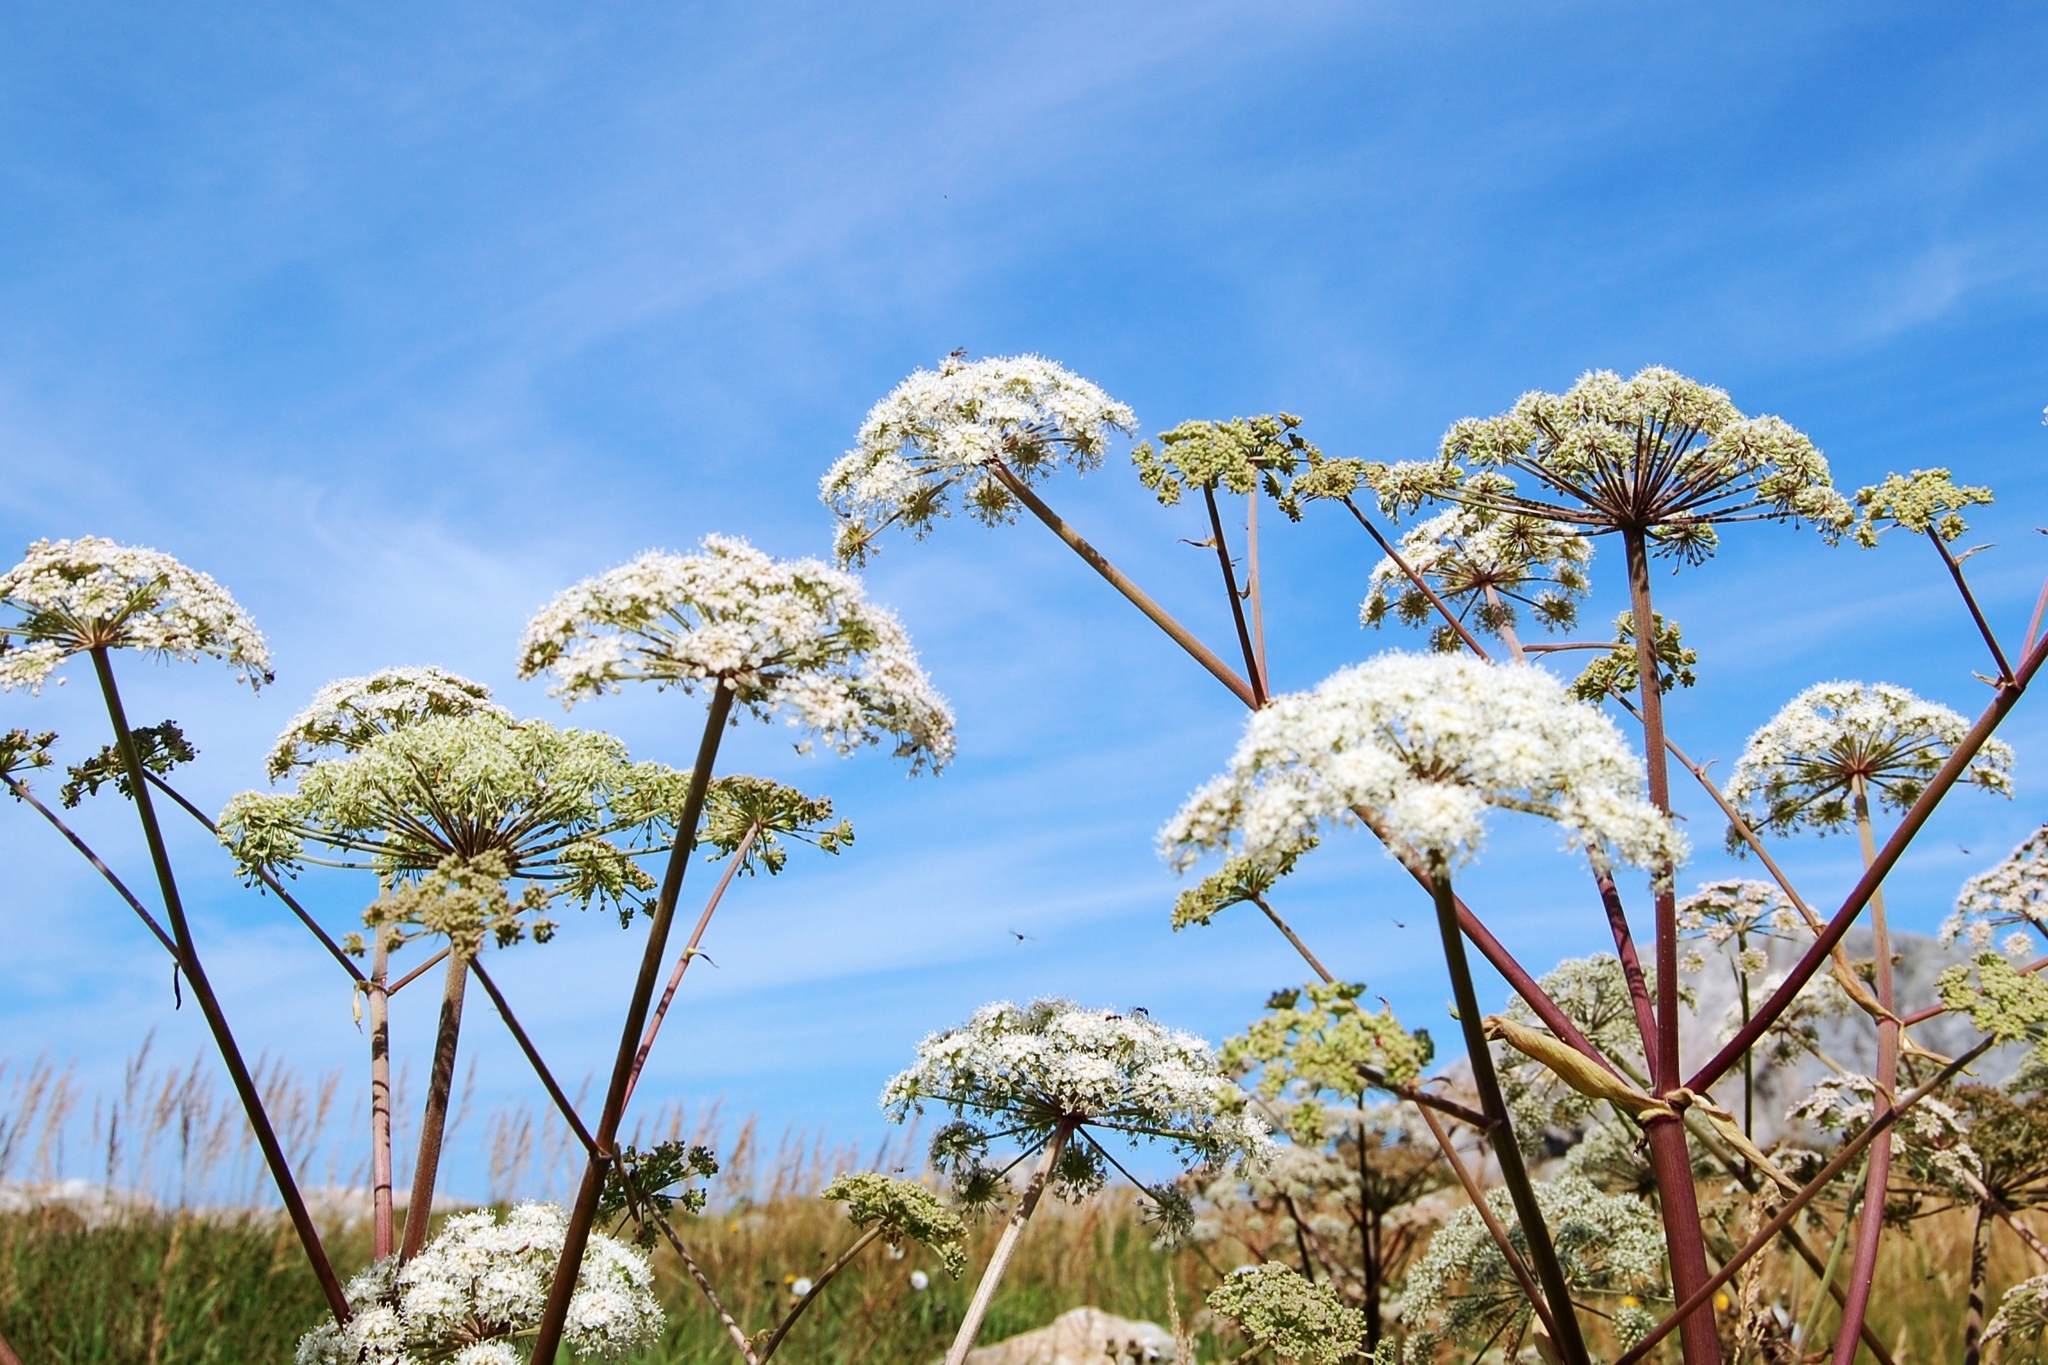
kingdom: Plantae
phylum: Tracheophyta
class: Magnoliopsida
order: Apiales
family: Apiaceae
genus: Angelica
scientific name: Angelica sylvestris
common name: Wild angelica
